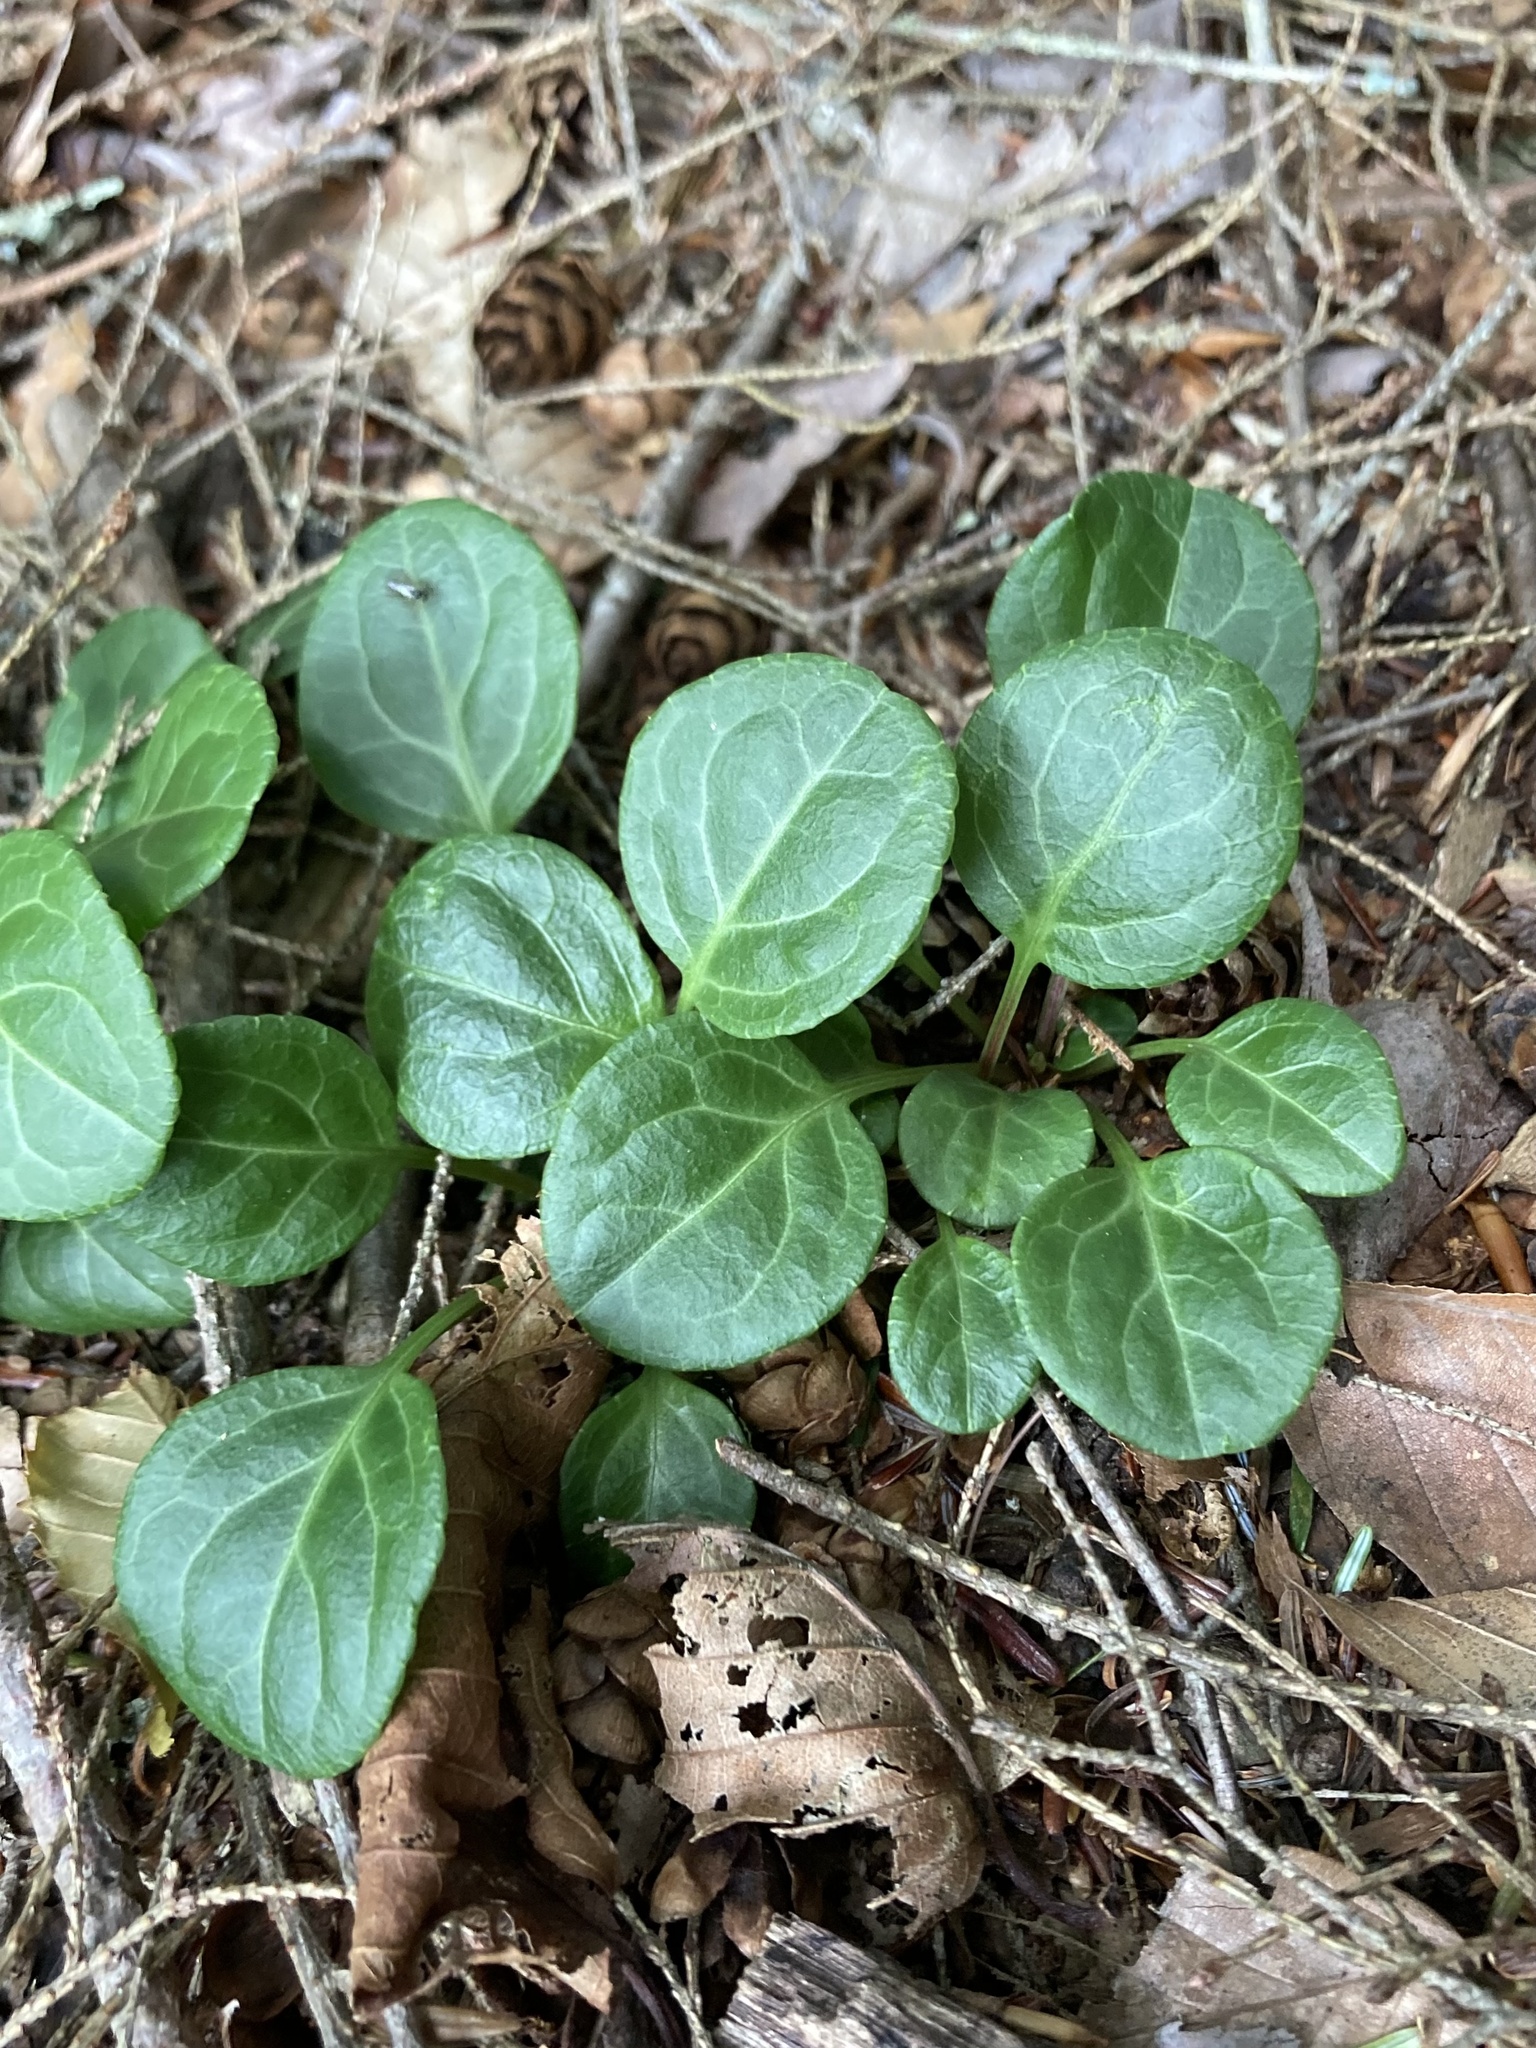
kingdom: Plantae
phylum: Tracheophyta
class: Magnoliopsida
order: Ericales
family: Ericaceae
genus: Pyrola
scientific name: Pyrola chlorantha
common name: Green wintergreen
